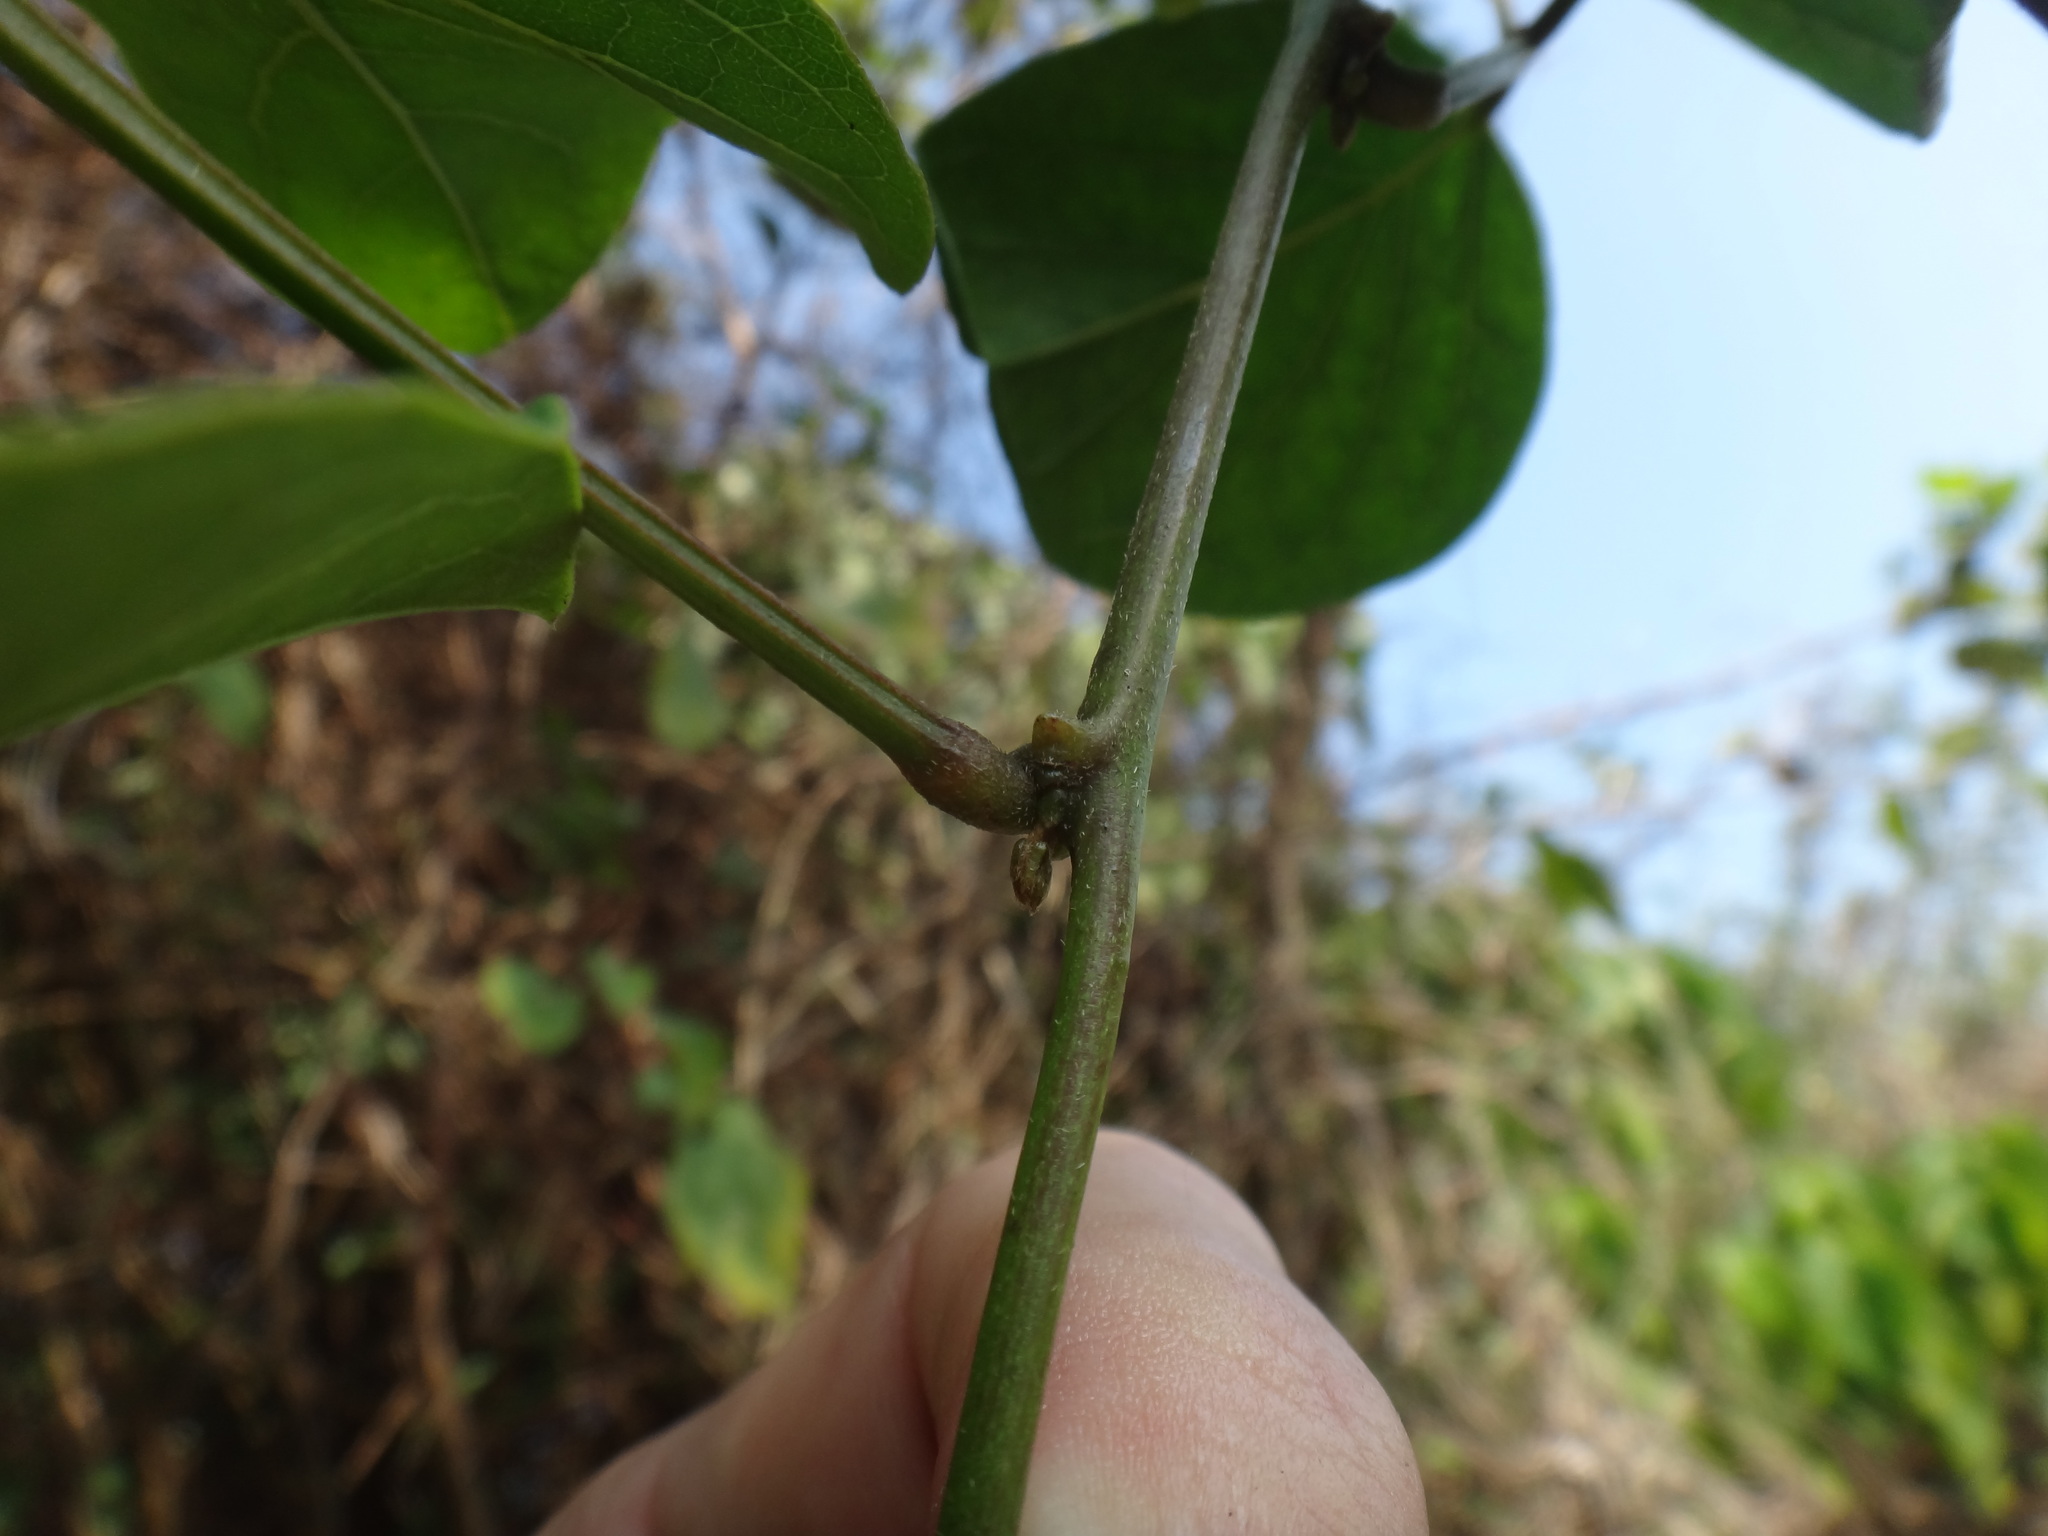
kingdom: Plantae
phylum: Tracheophyta
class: Magnoliopsida
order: Fabales
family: Fabaceae
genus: Canavalia
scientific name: Canavalia lineata
